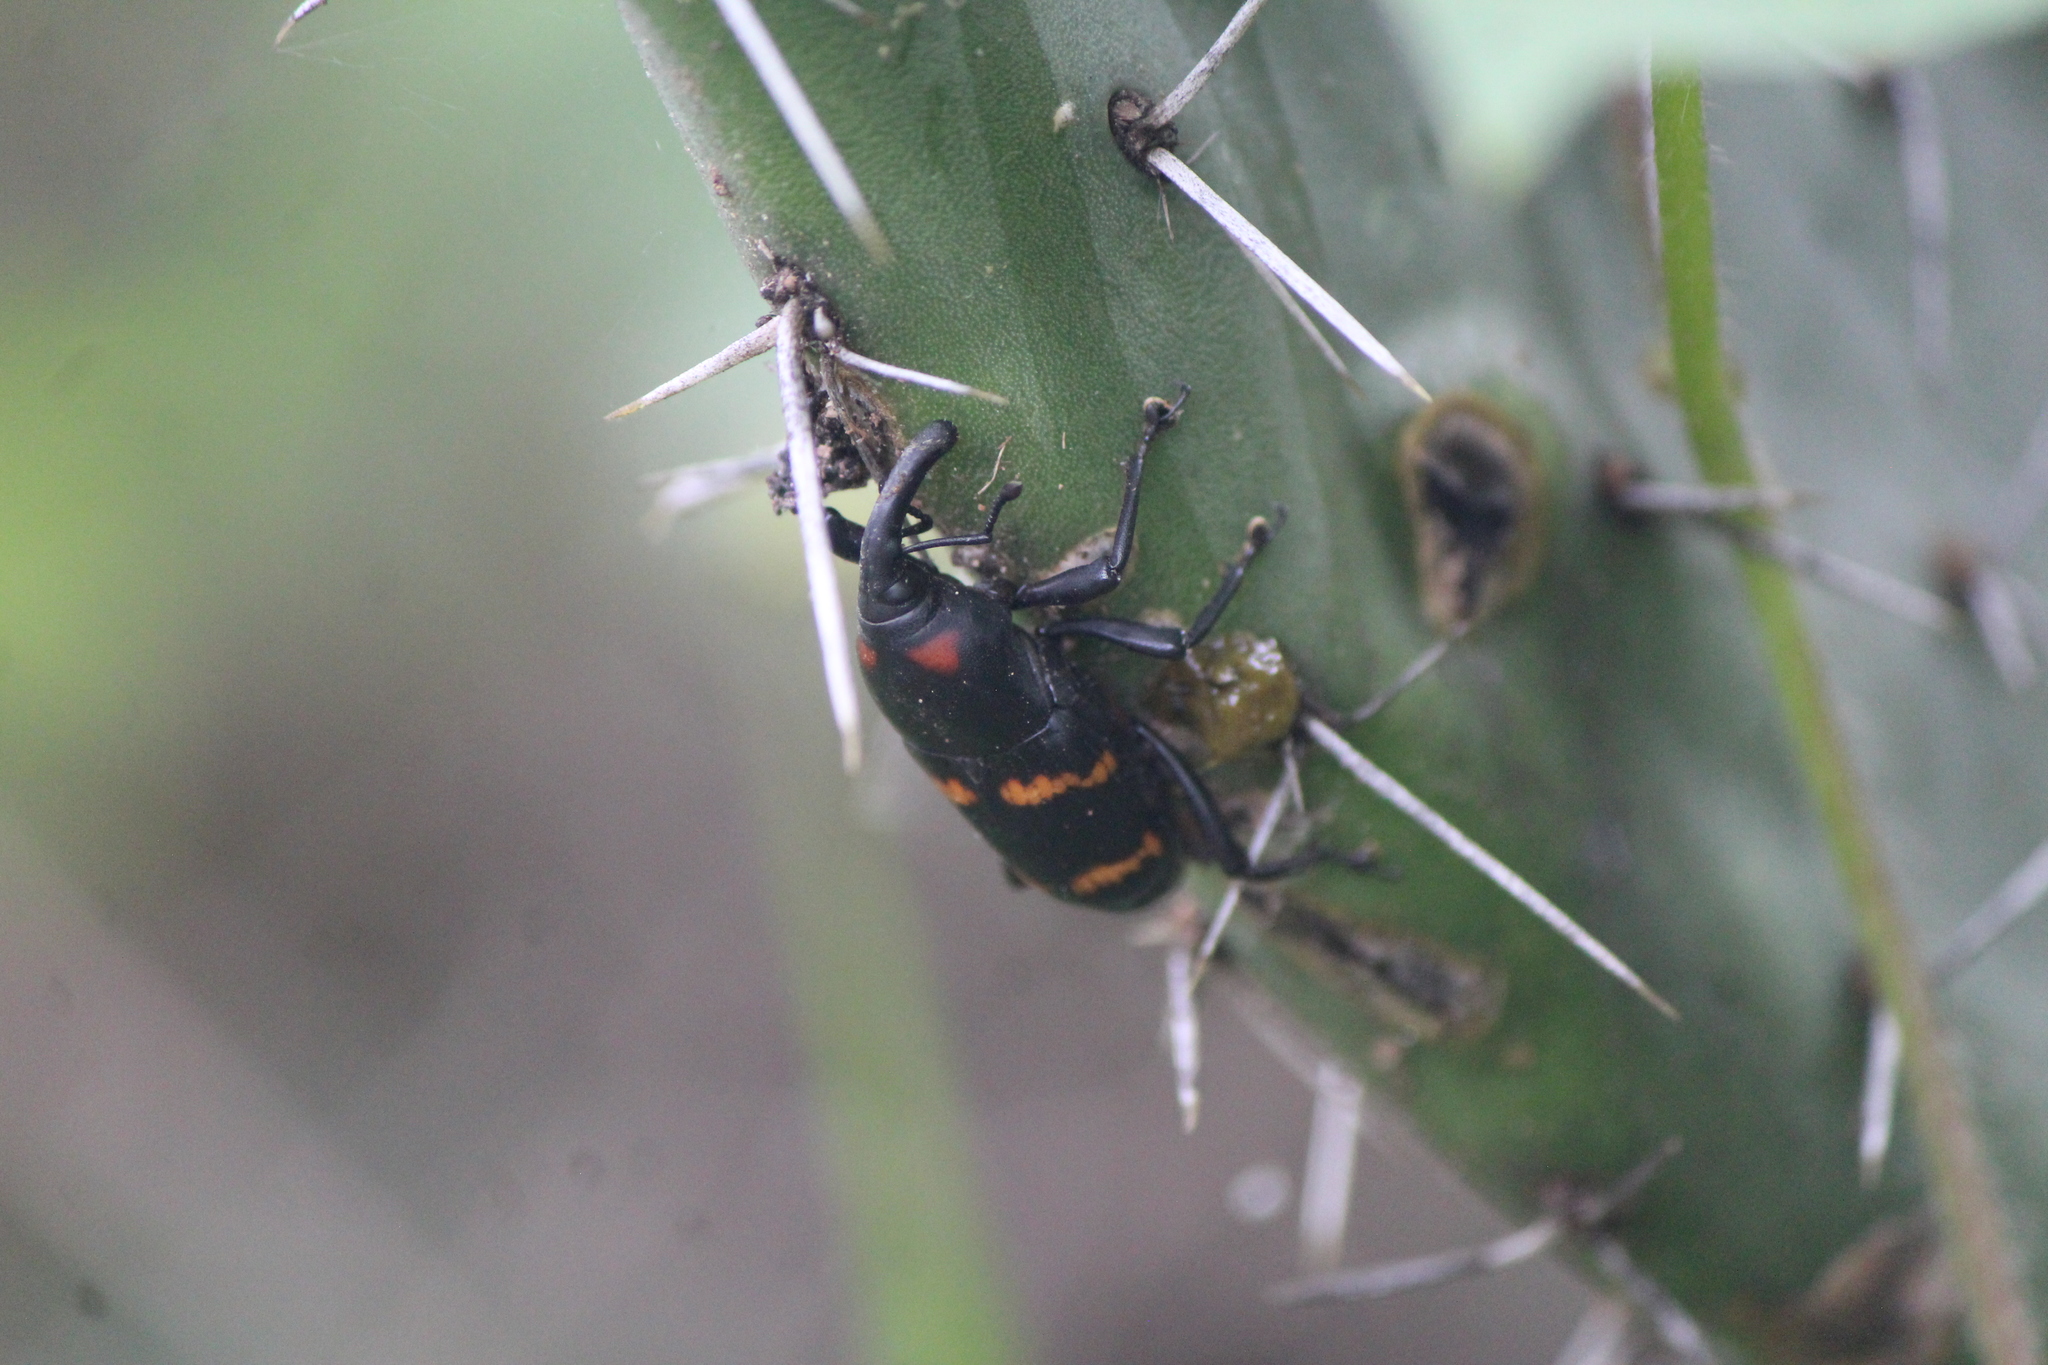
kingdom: Animalia
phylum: Arthropoda
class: Insecta
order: Coleoptera
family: Dryophthoridae
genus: Cactophagus
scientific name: Cactophagus spinolae
